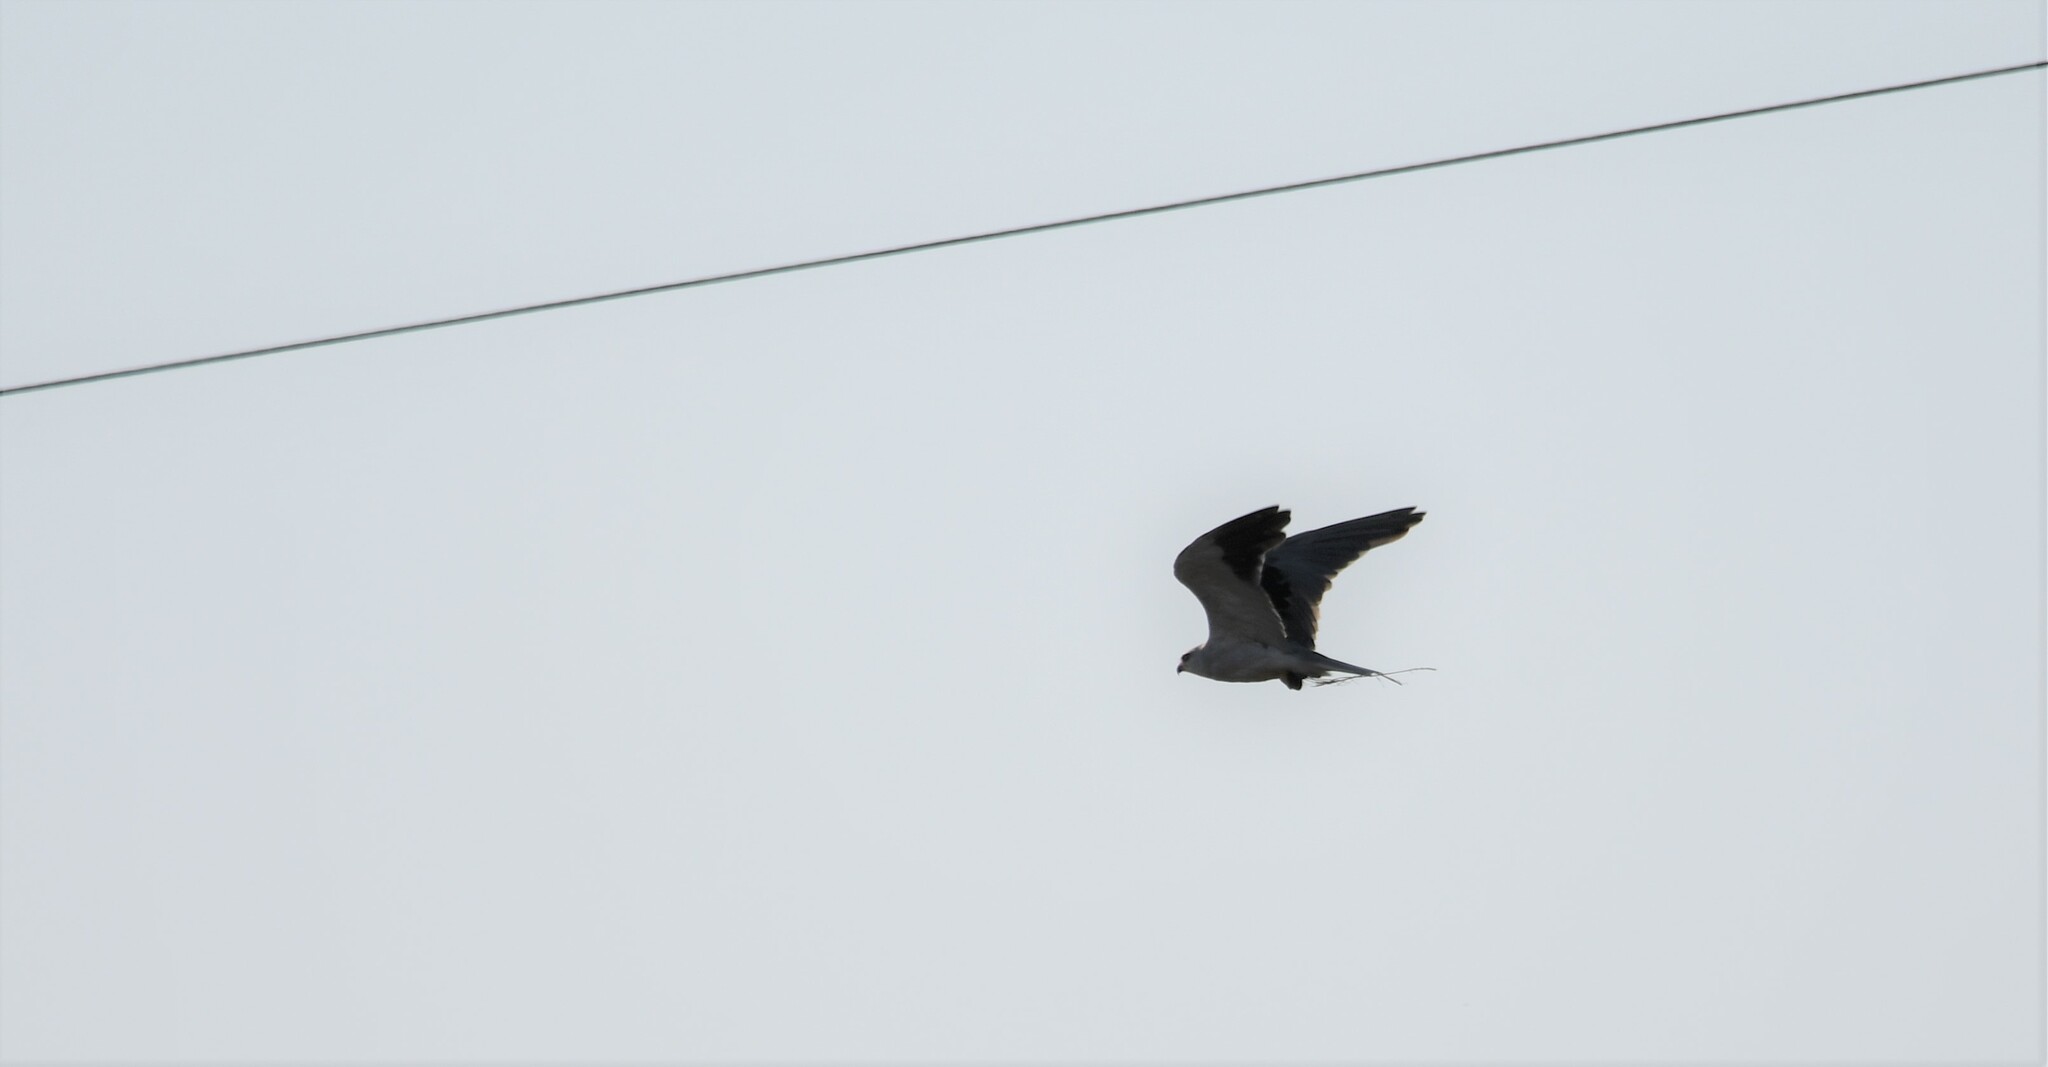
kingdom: Animalia
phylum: Chordata
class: Aves
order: Accipitriformes
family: Accipitridae
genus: Elanus
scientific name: Elanus caeruleus
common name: Black-winged kite
